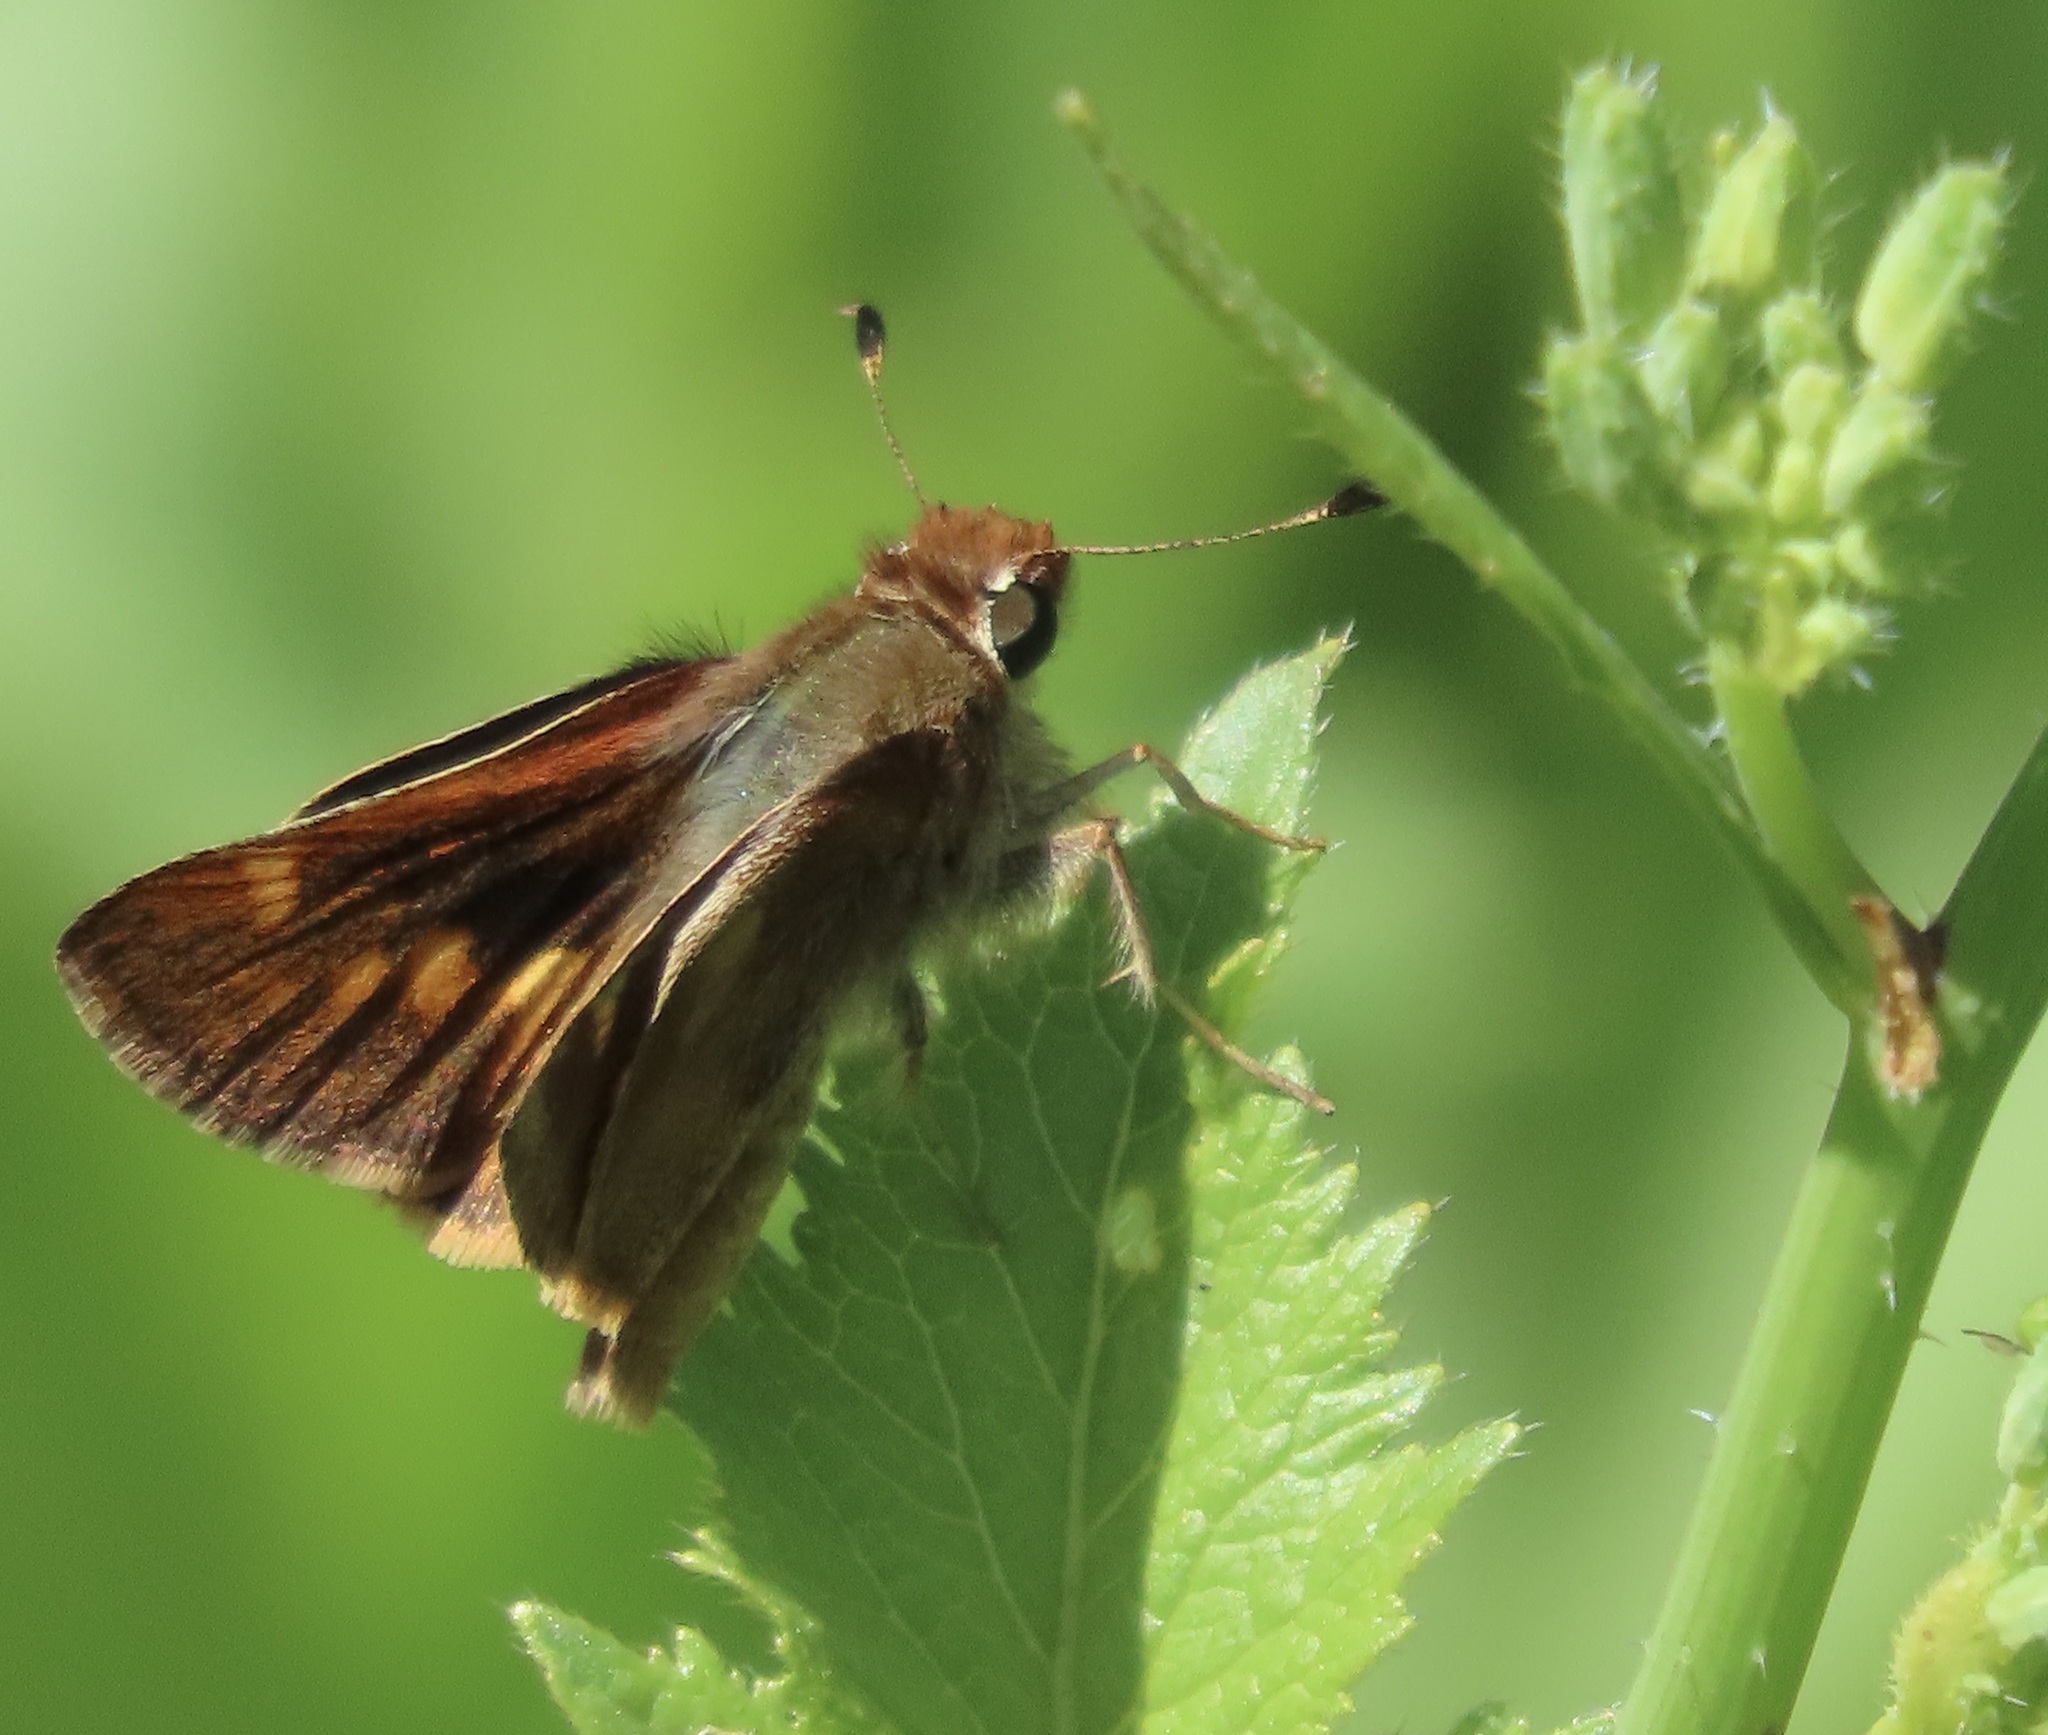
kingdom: Animalia
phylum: Arthropoda
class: Insecta
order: Lepidoptera
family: Hesperiidae
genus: Lon
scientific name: Lon melane
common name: Umber skipper
